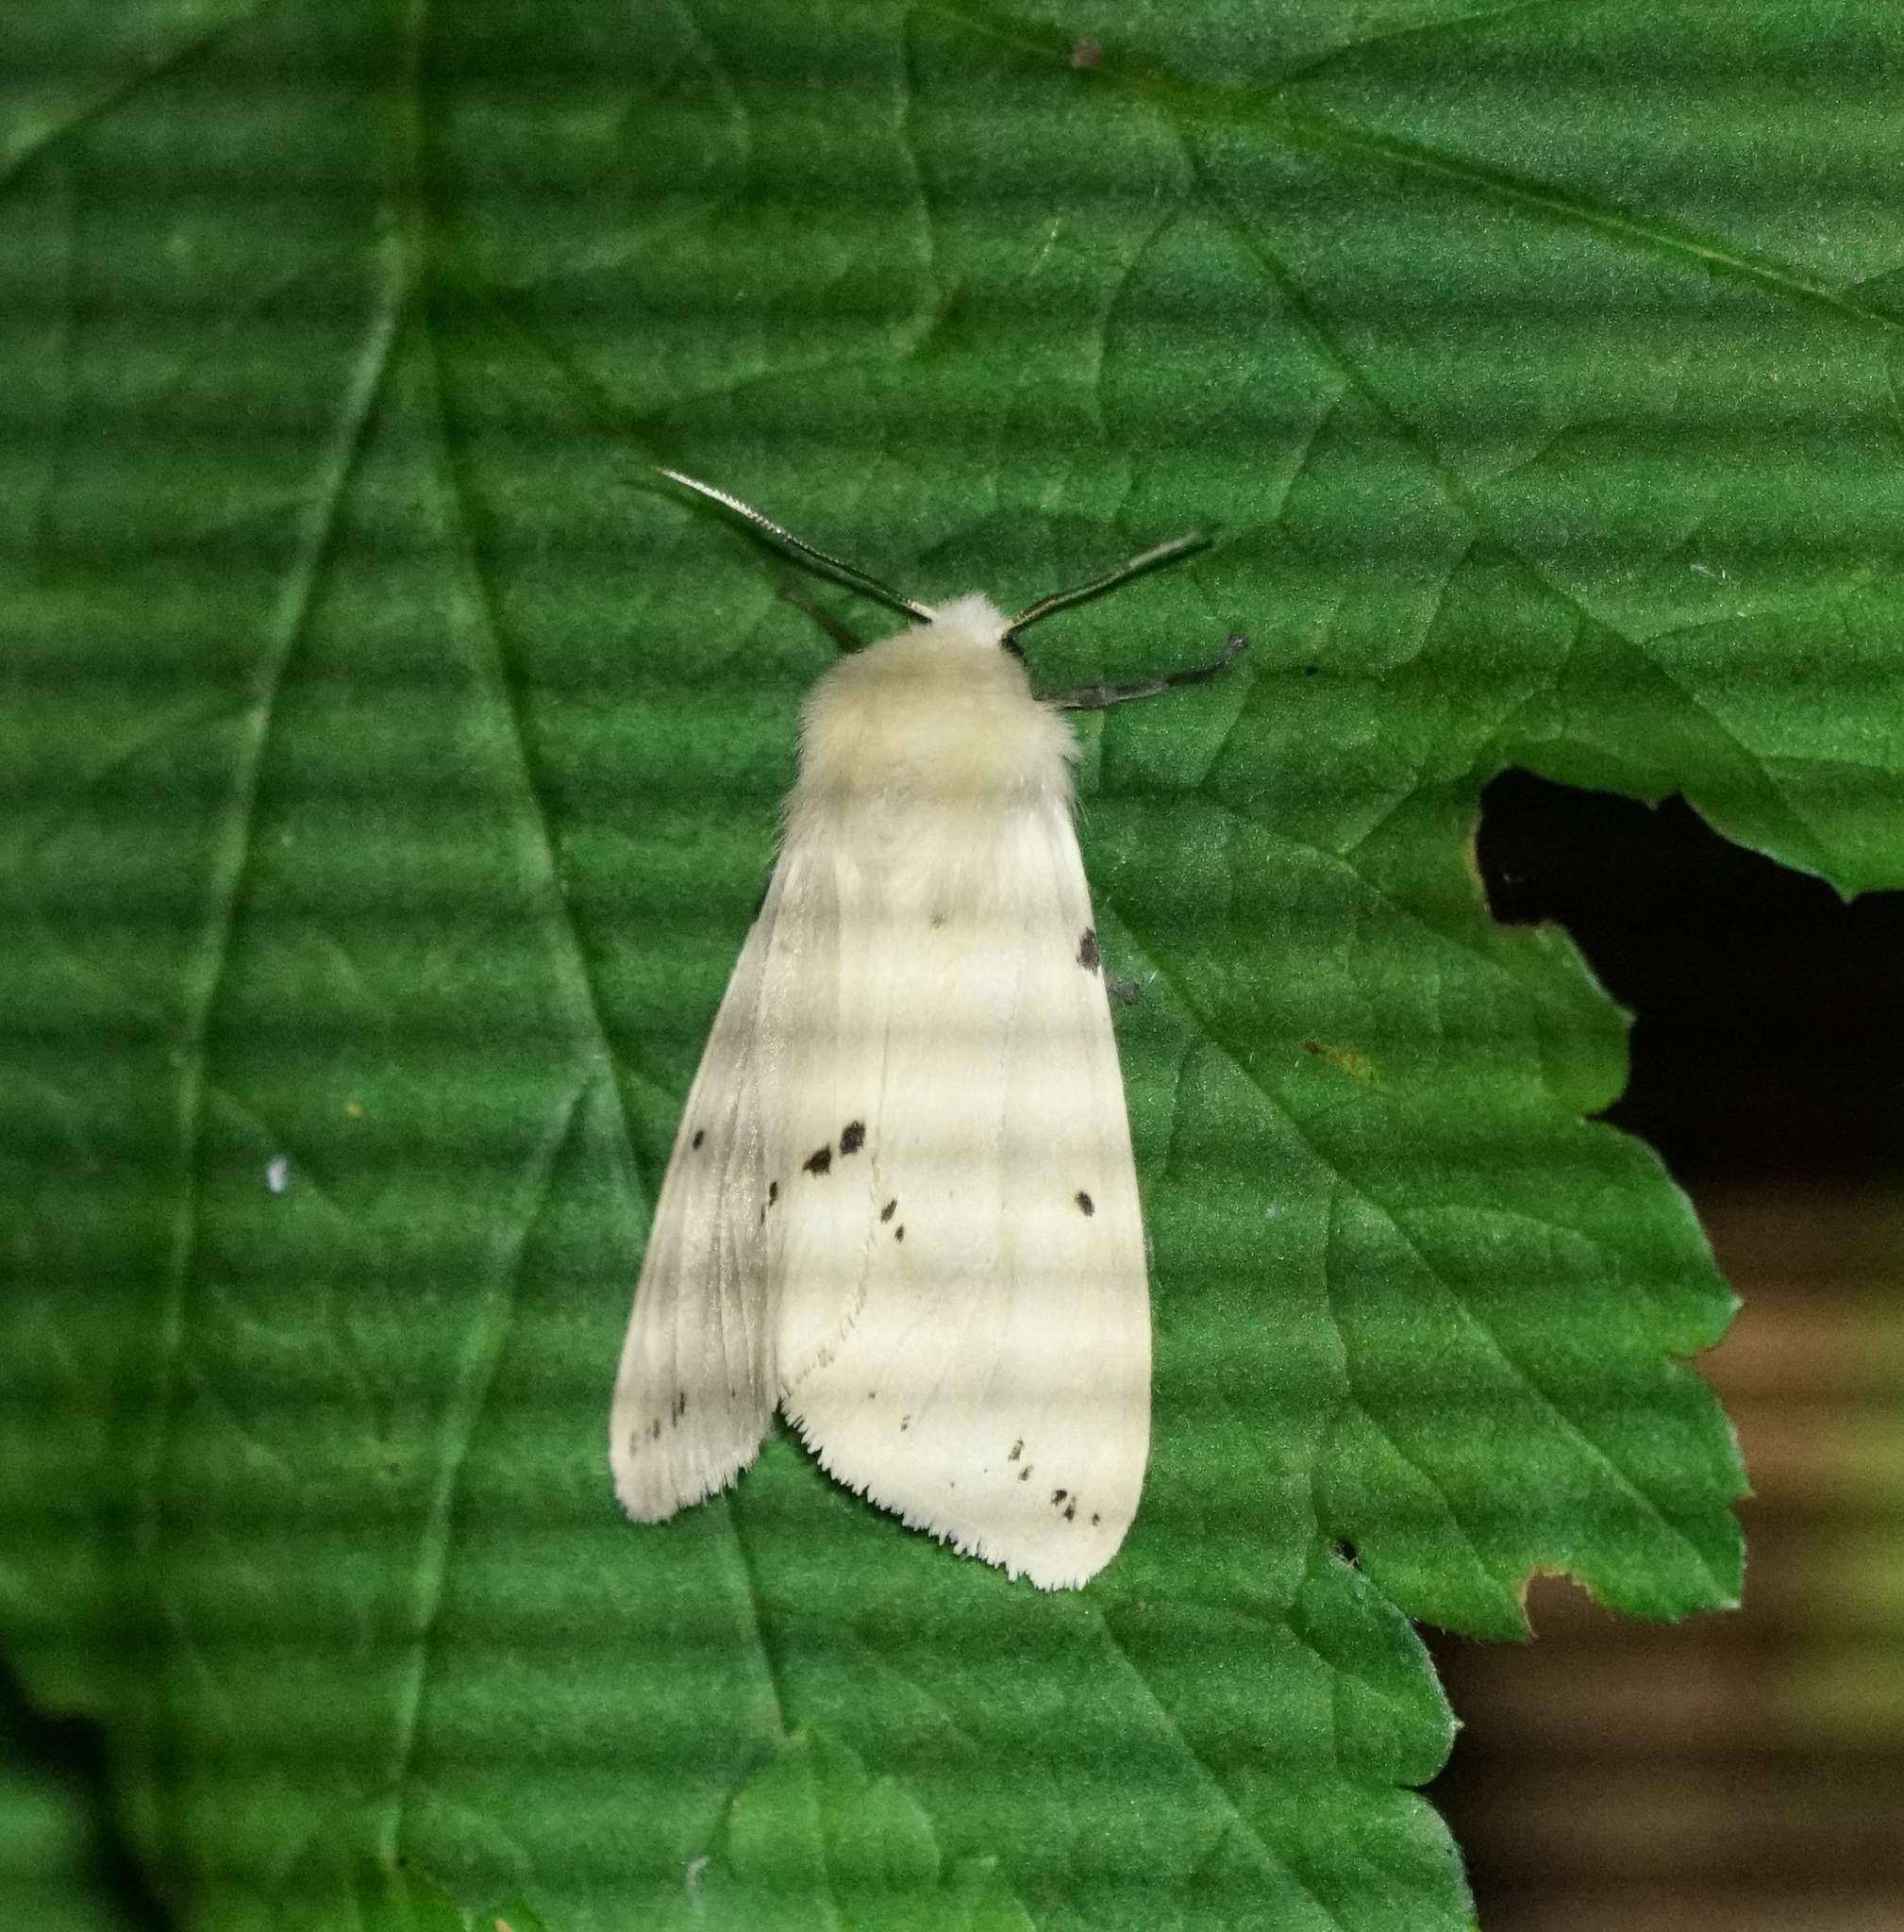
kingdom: Animalia
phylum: Arthropoda
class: Insecta
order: Lepidoptera
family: Erebidae
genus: Spilarctia
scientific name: Spilarctia lutea
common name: Buff ermine
